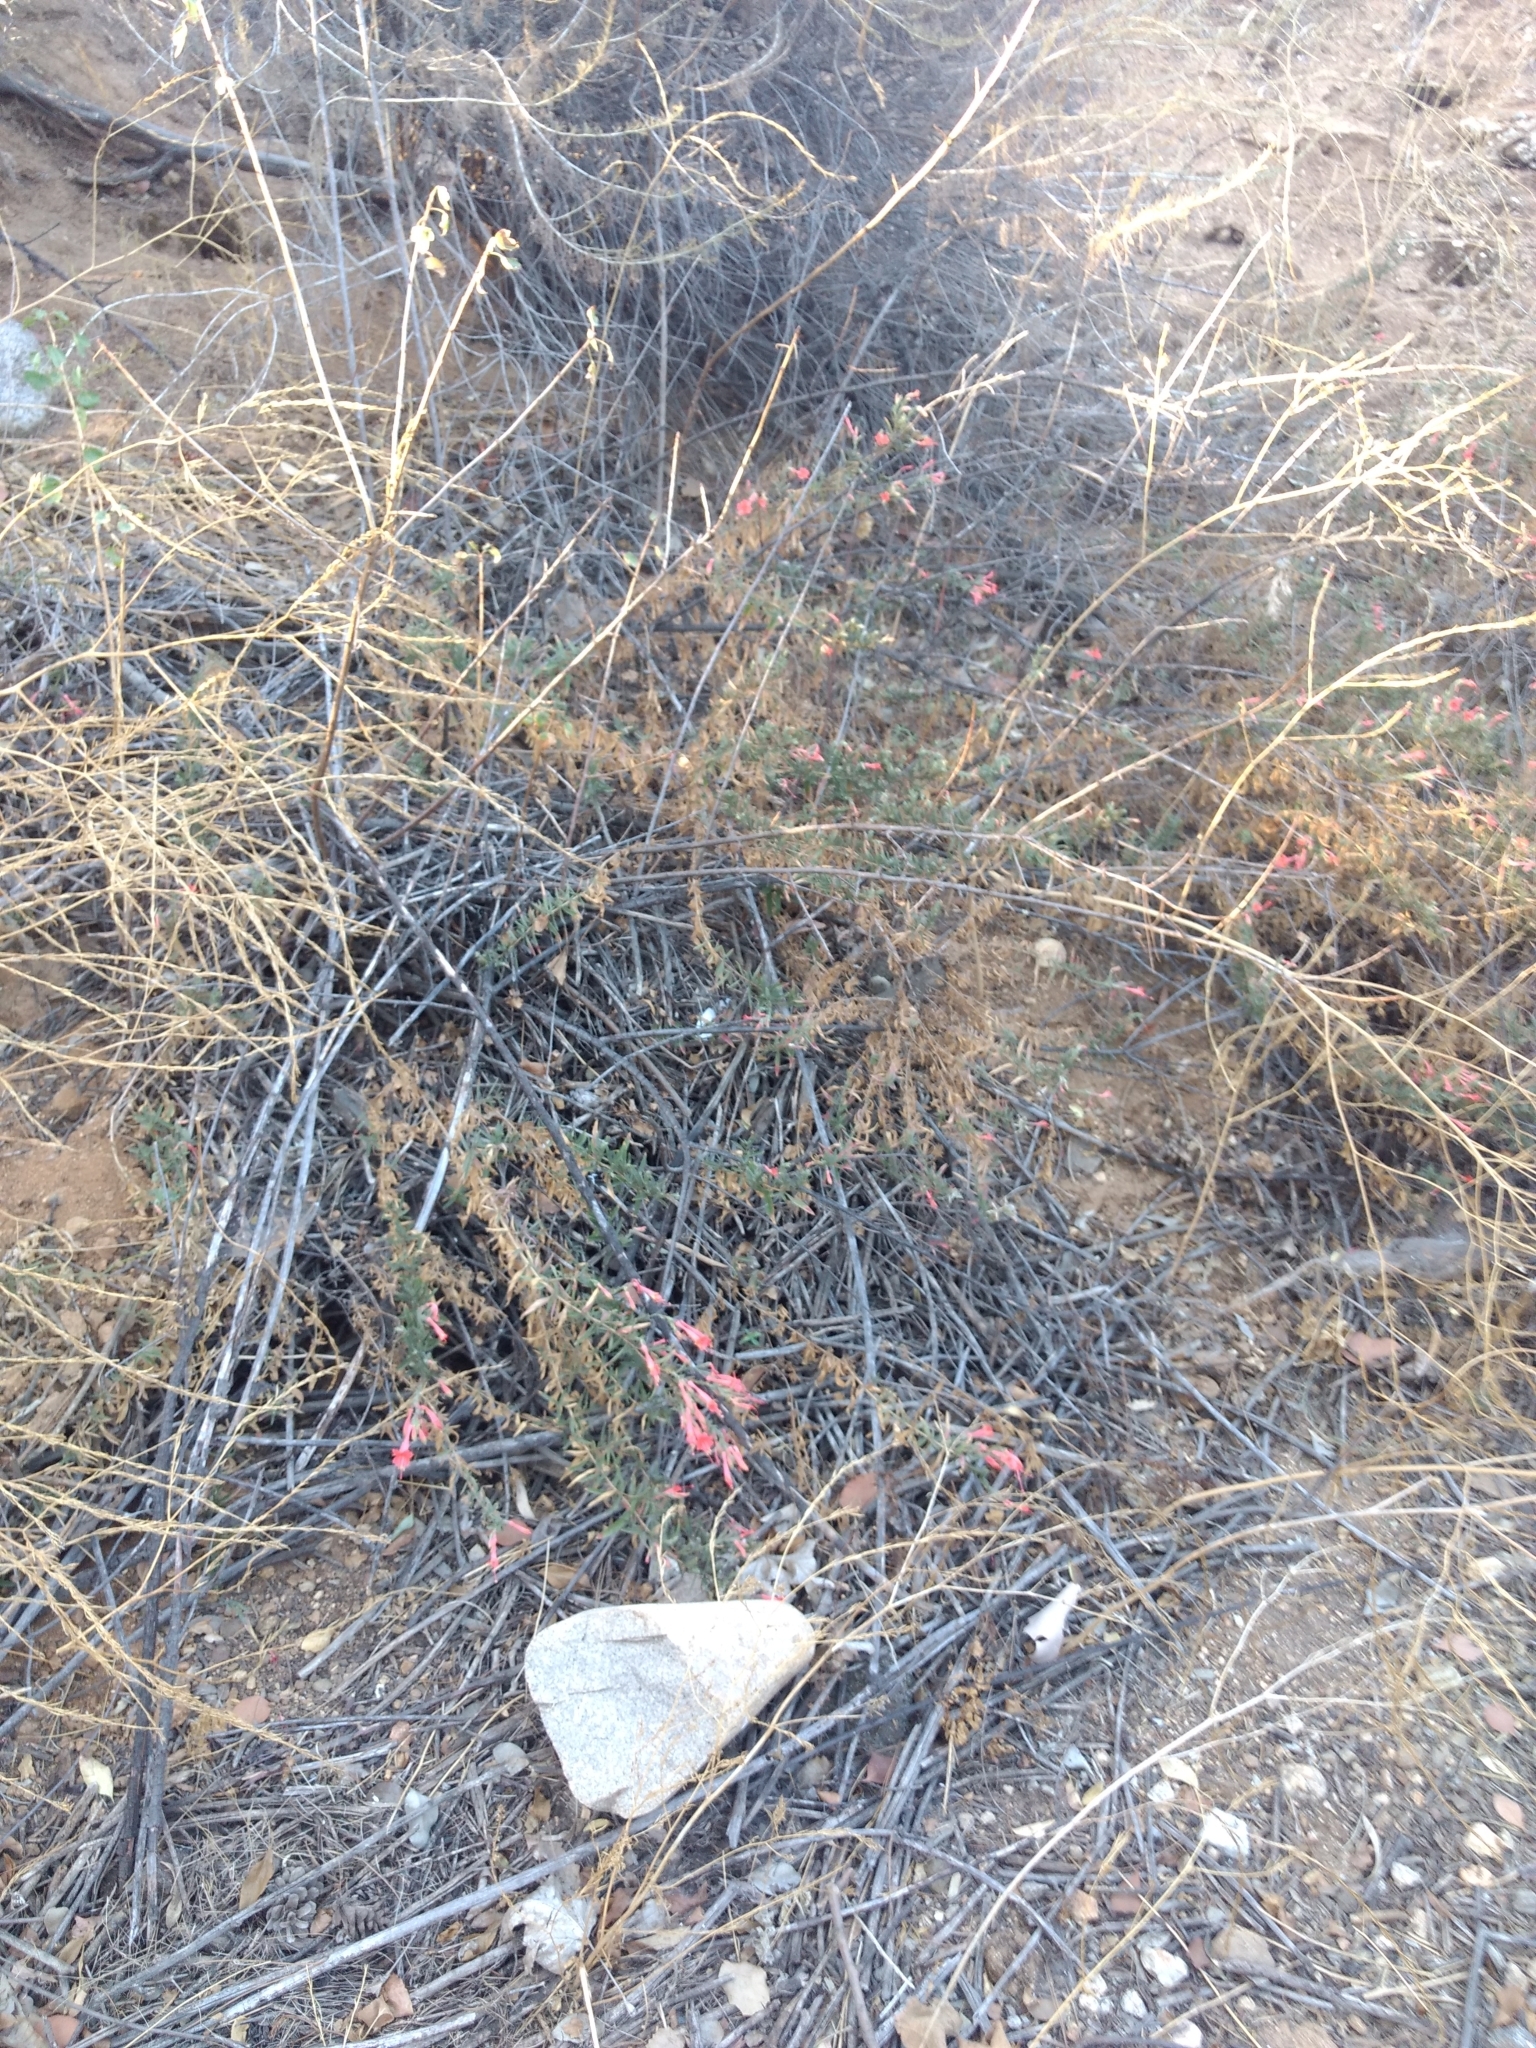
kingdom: Plantae
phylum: Tracheophyta
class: Magnoliopsida
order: Myrtales
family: Onagraceae
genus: Epilobium
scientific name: Epilobium canum
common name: California-fuchsia
